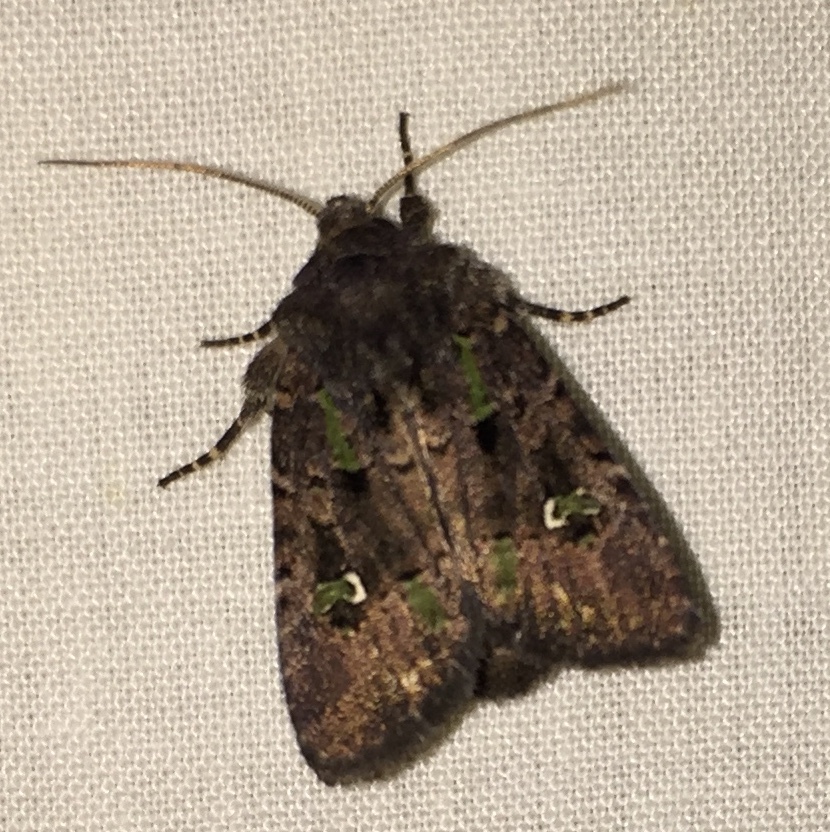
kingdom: Animalia
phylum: Arthropoda
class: Insecta
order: Lepidoptera
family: Noctuidae
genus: Lacinipolia
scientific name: Lacinipolia renigera
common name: Kidney-spotted minor
